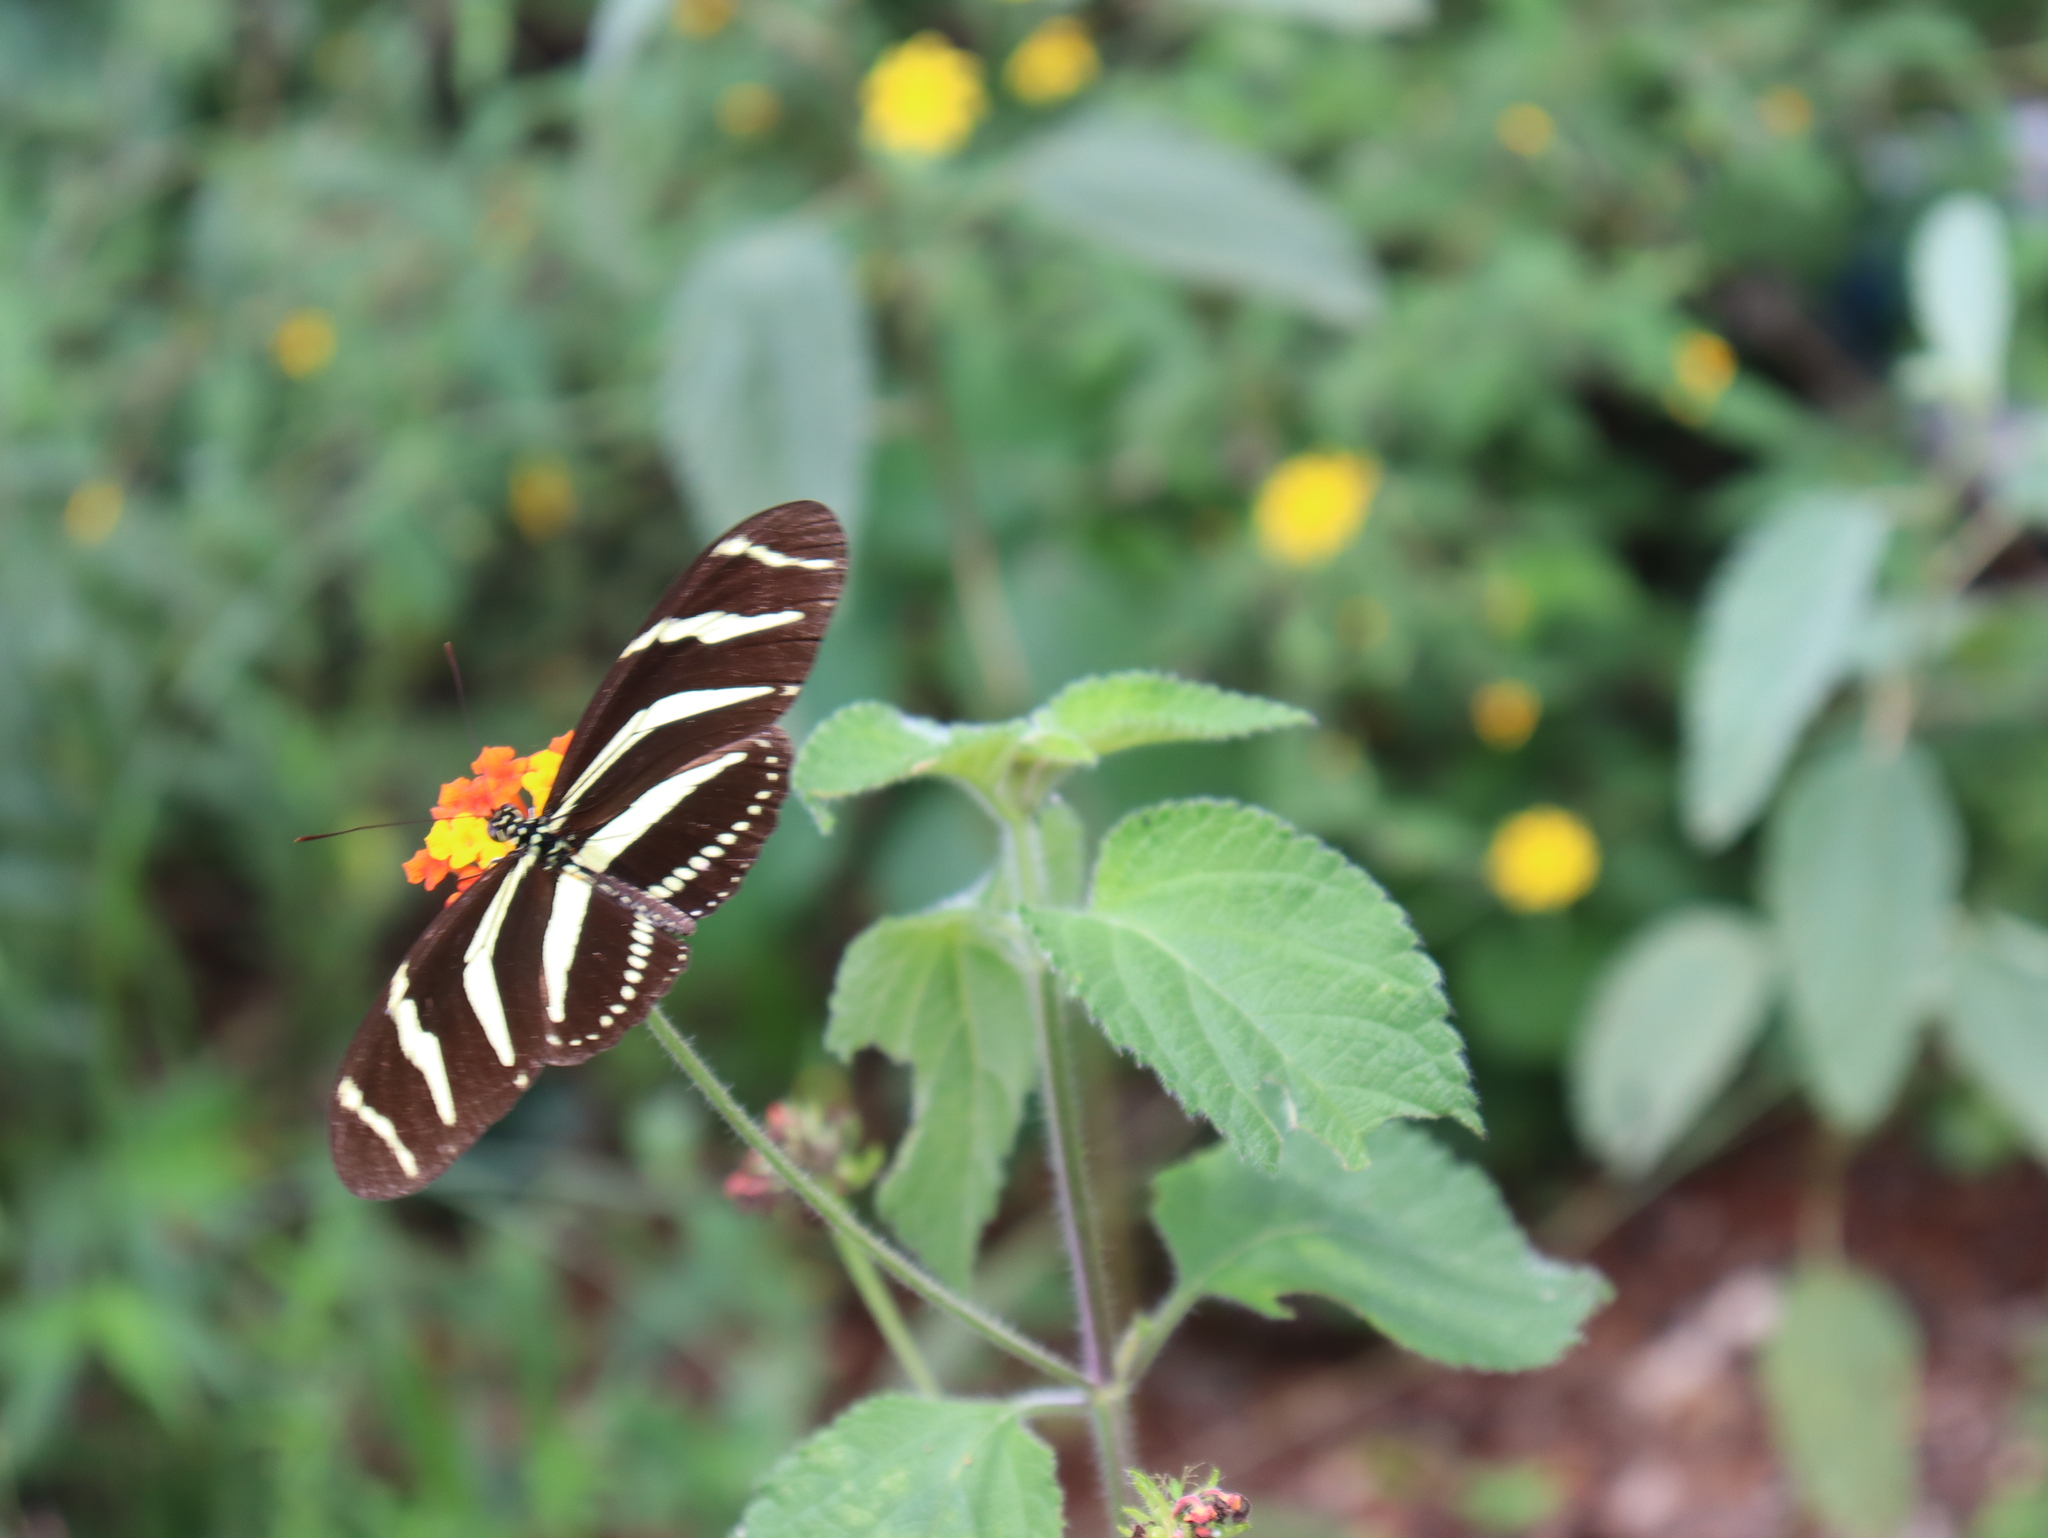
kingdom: Animalia
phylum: Arthropoda
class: Insecta
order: Lepidoptera
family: Nymphalidae
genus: Heliconius
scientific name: Heliconius charithonia
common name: Zebra long wing
